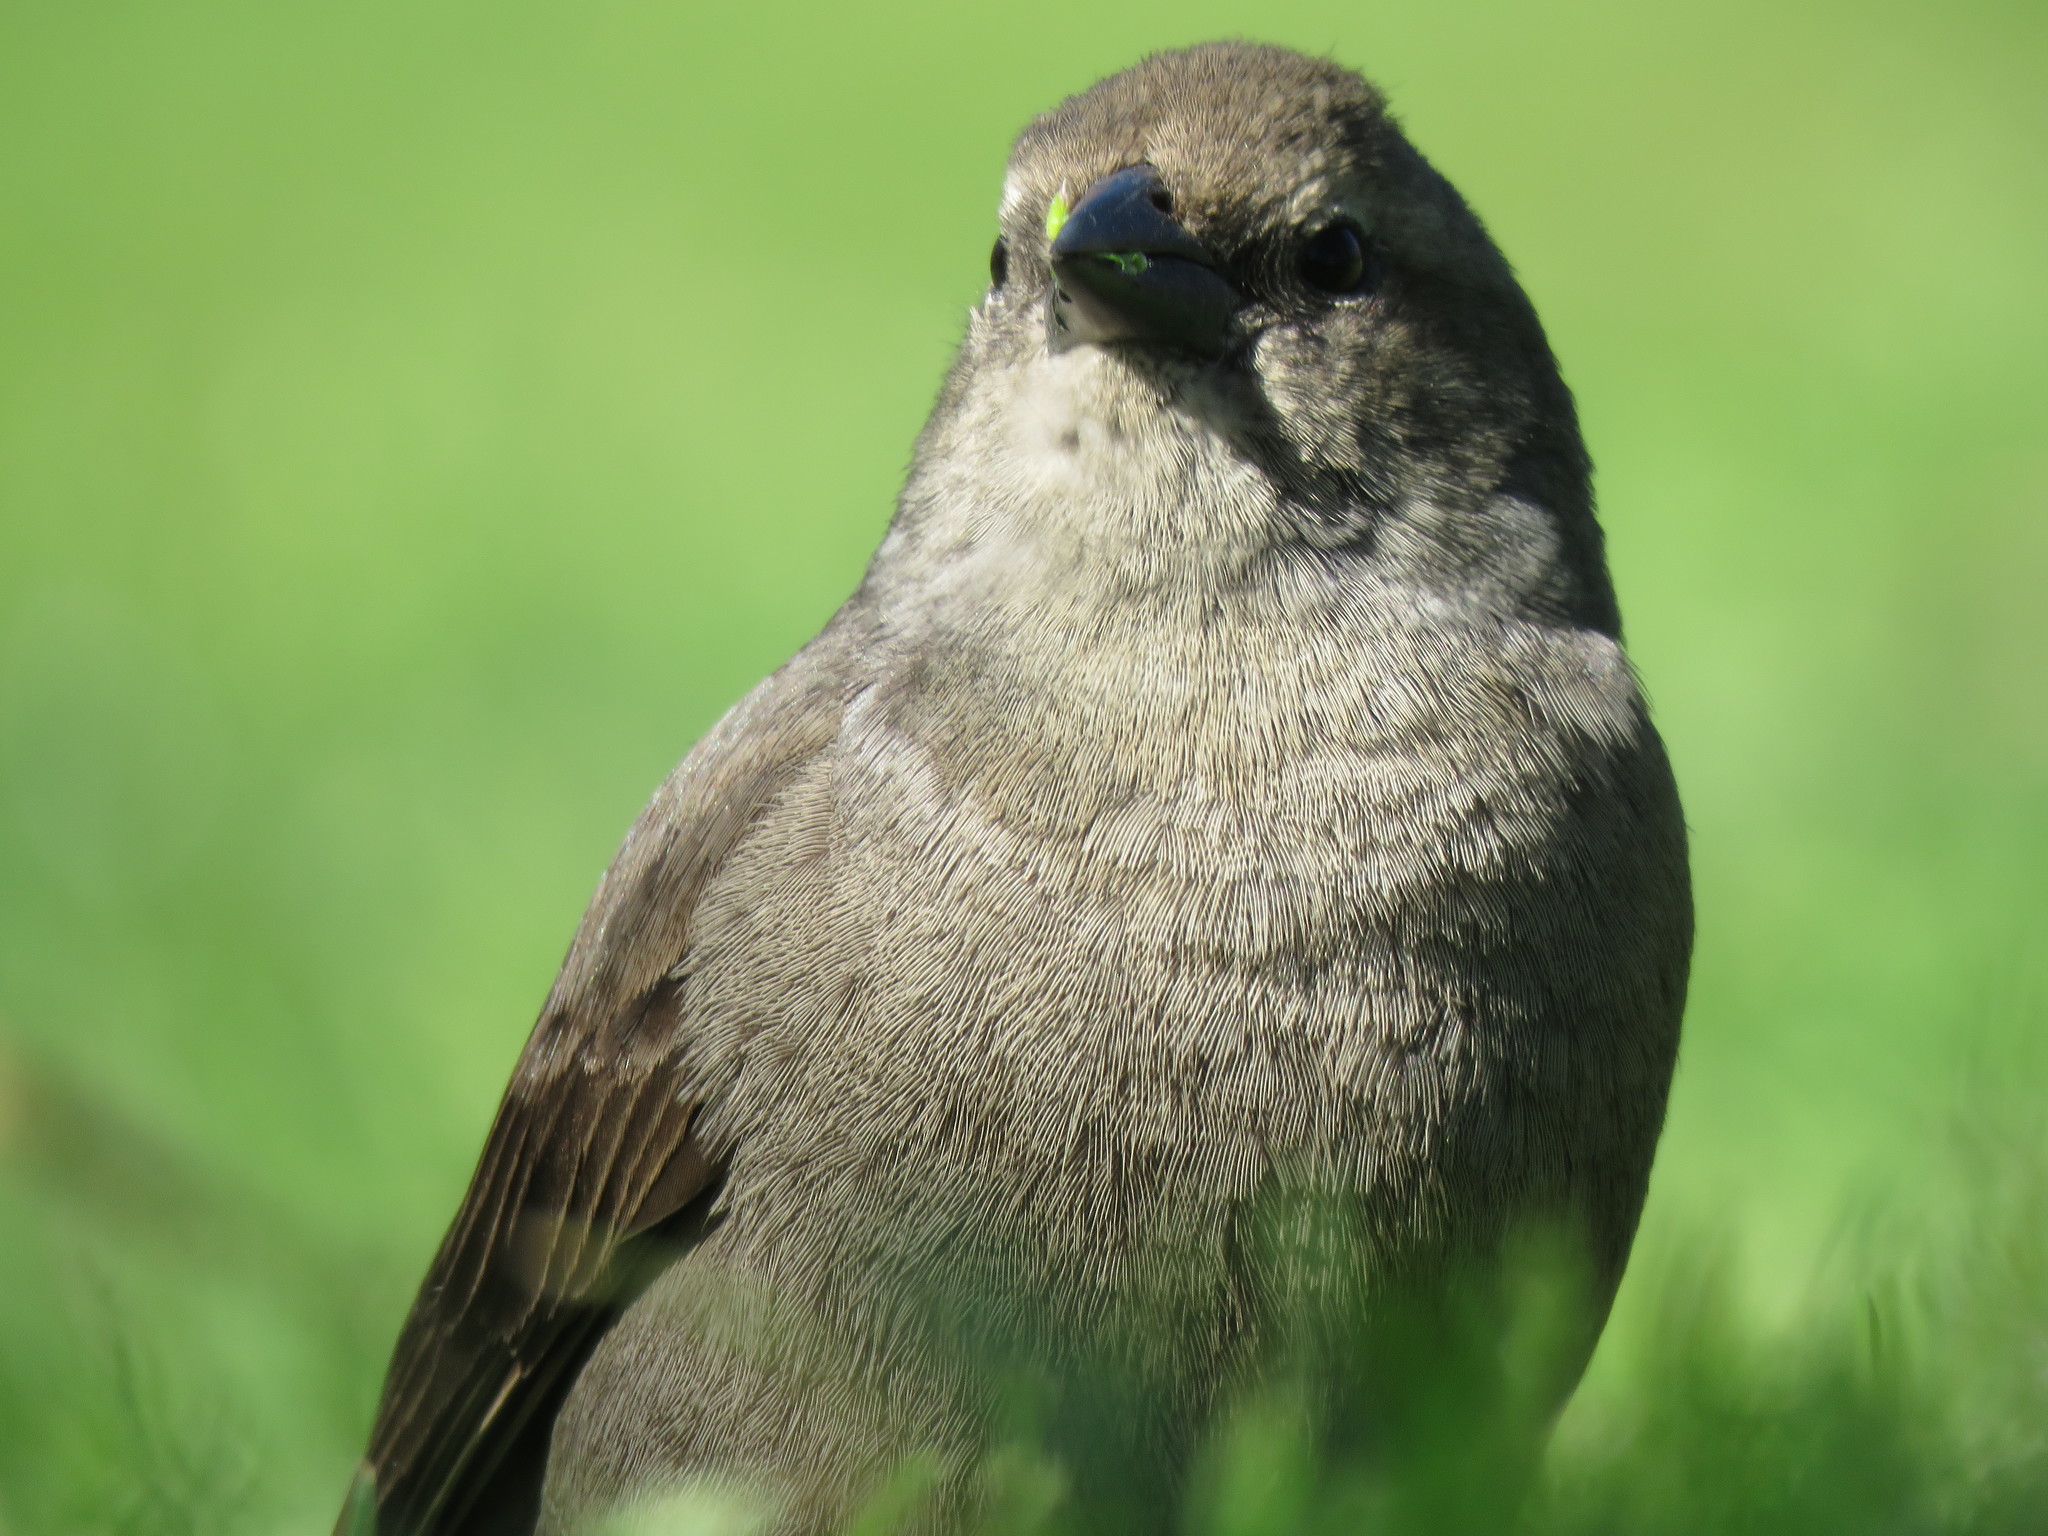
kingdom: Animalia
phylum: Chordata
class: Aves
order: Passeriformes
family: Icteridae
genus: Molothrus
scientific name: Molothrus bonariensis
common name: Shiny cowbird
